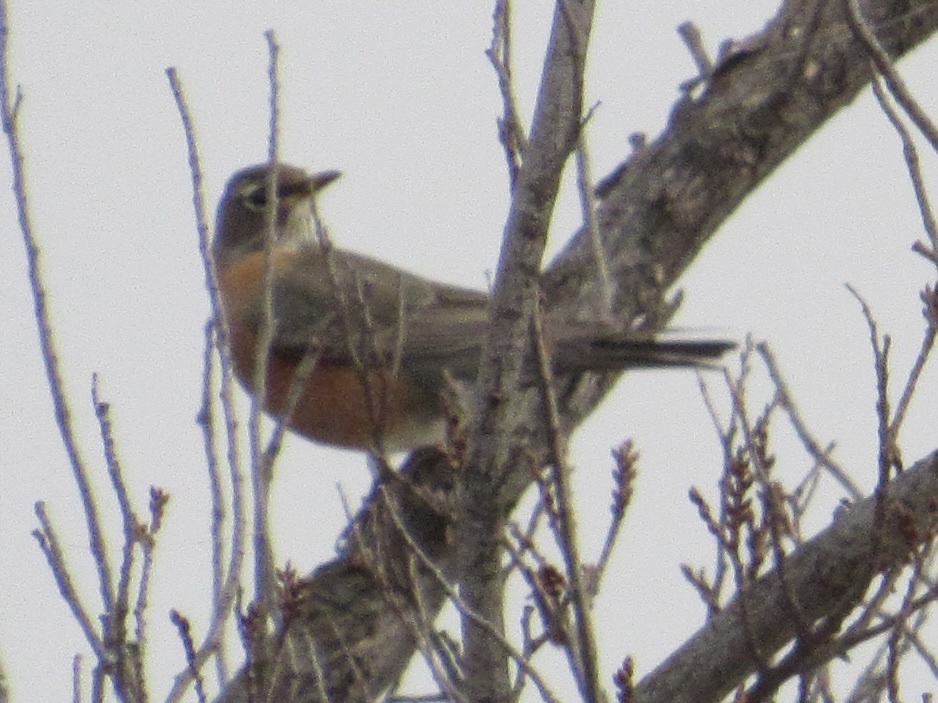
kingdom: Animalia
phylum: Chordata
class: Aves
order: Passeriformes
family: Turdidae
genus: Turdus
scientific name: Turdus migratorius
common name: American robin
